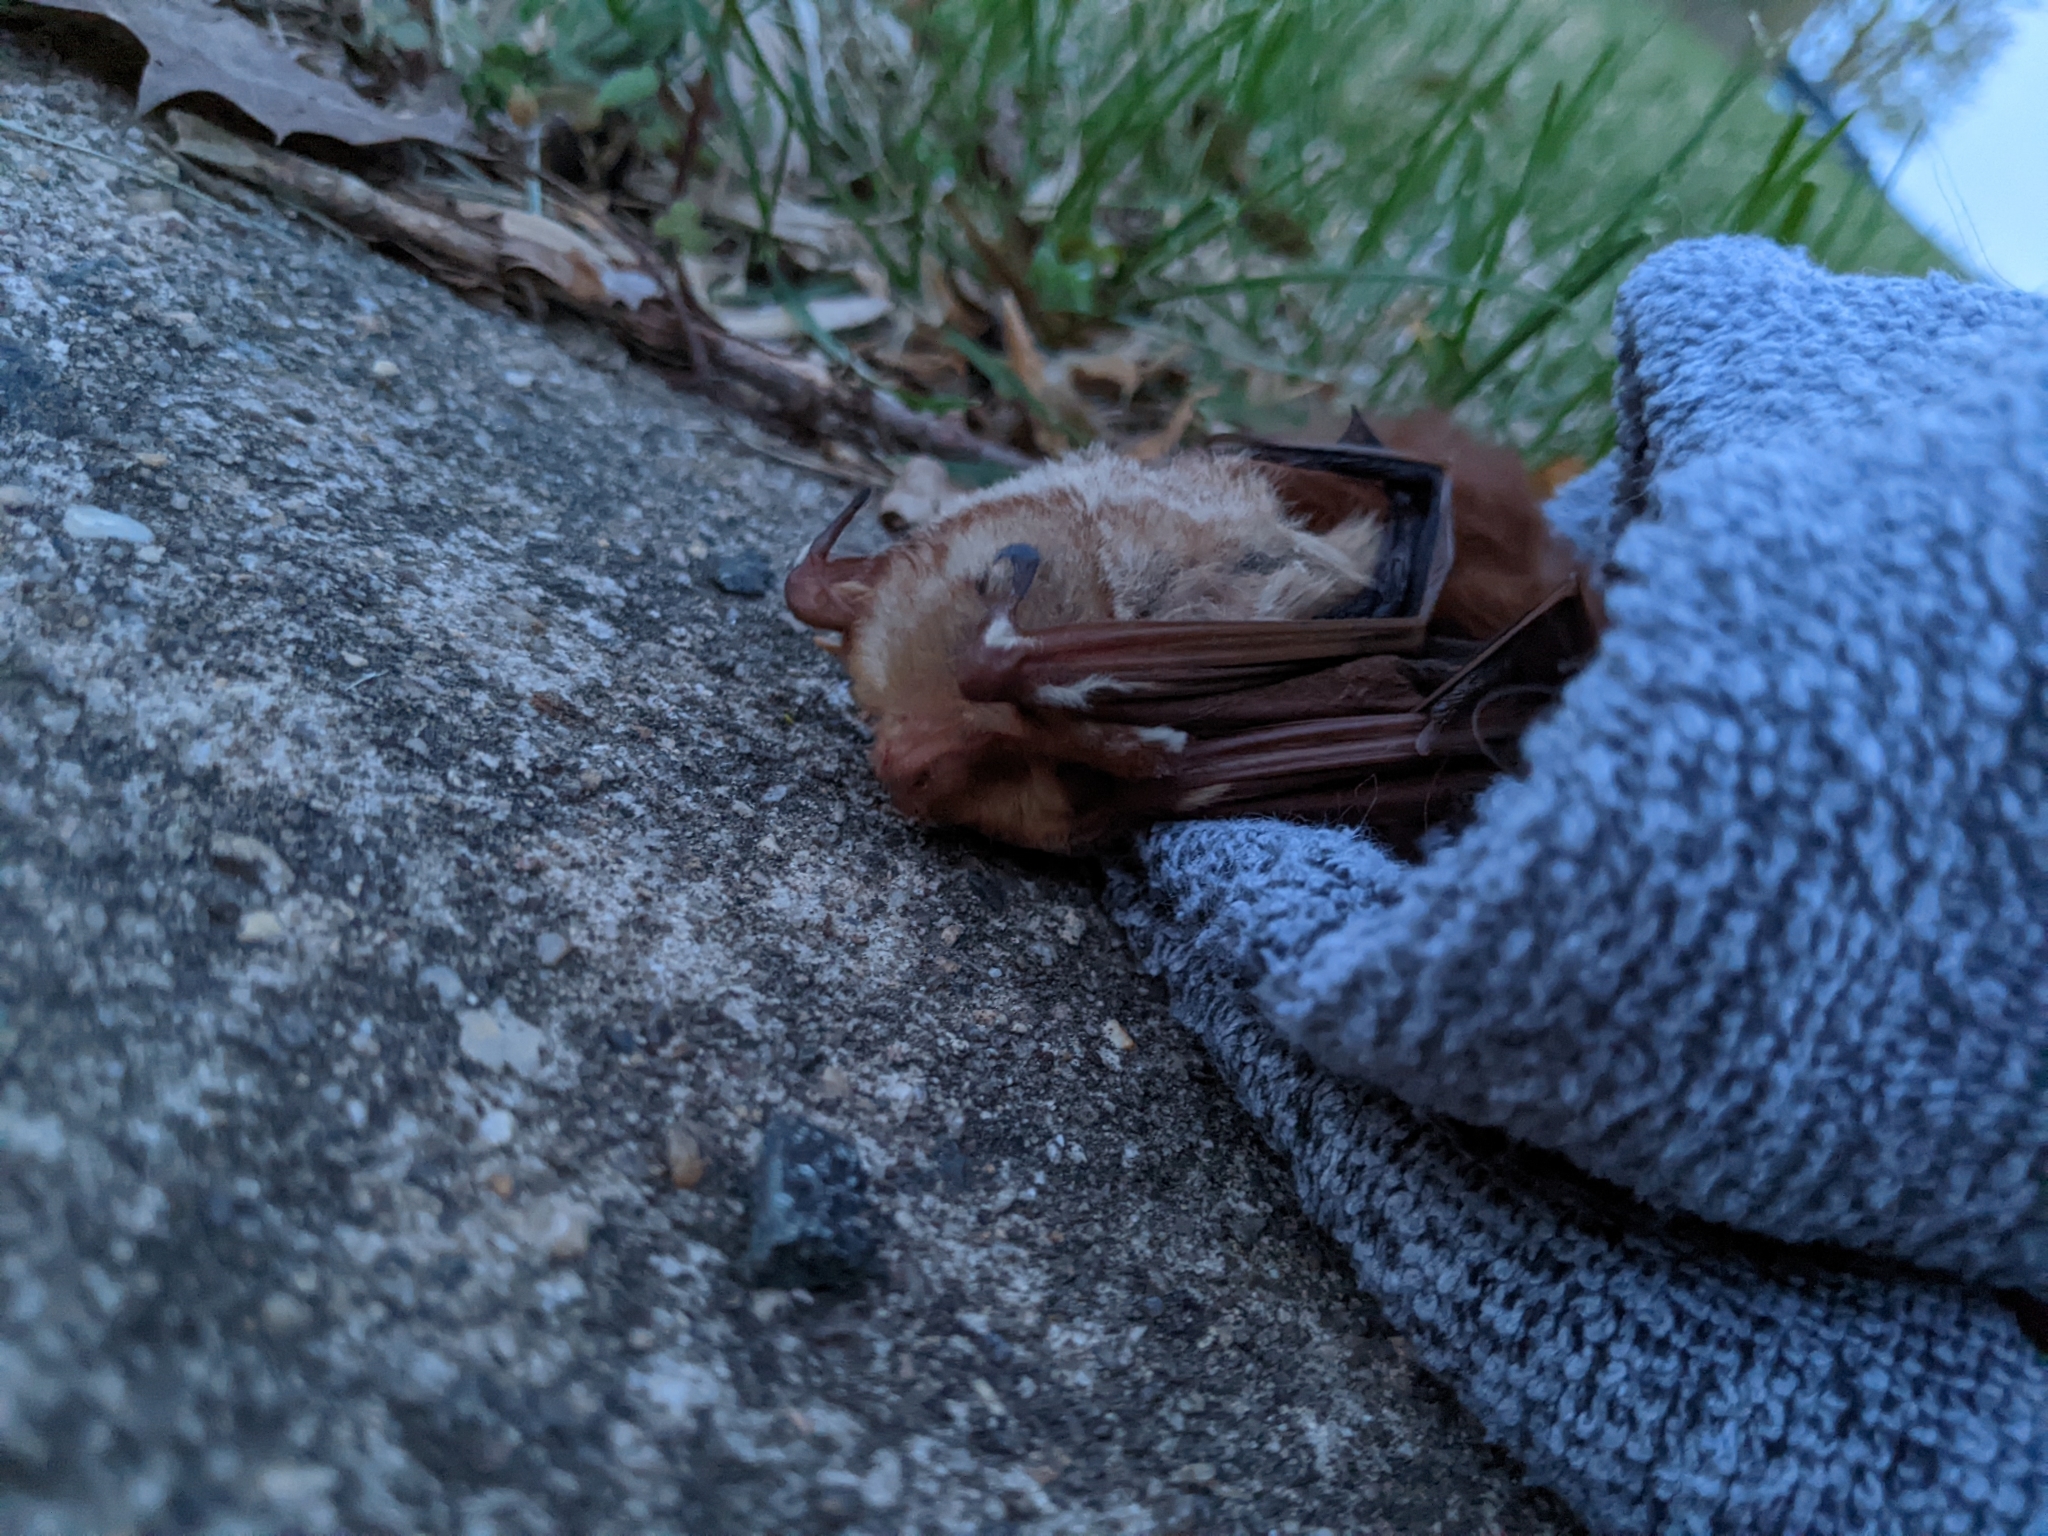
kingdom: Animalia
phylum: Chordata
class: Mammalia
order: Chiroptera
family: Vespertilionidae
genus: Lasiurus
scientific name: Lasiurus borealis
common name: Eastern red bat
